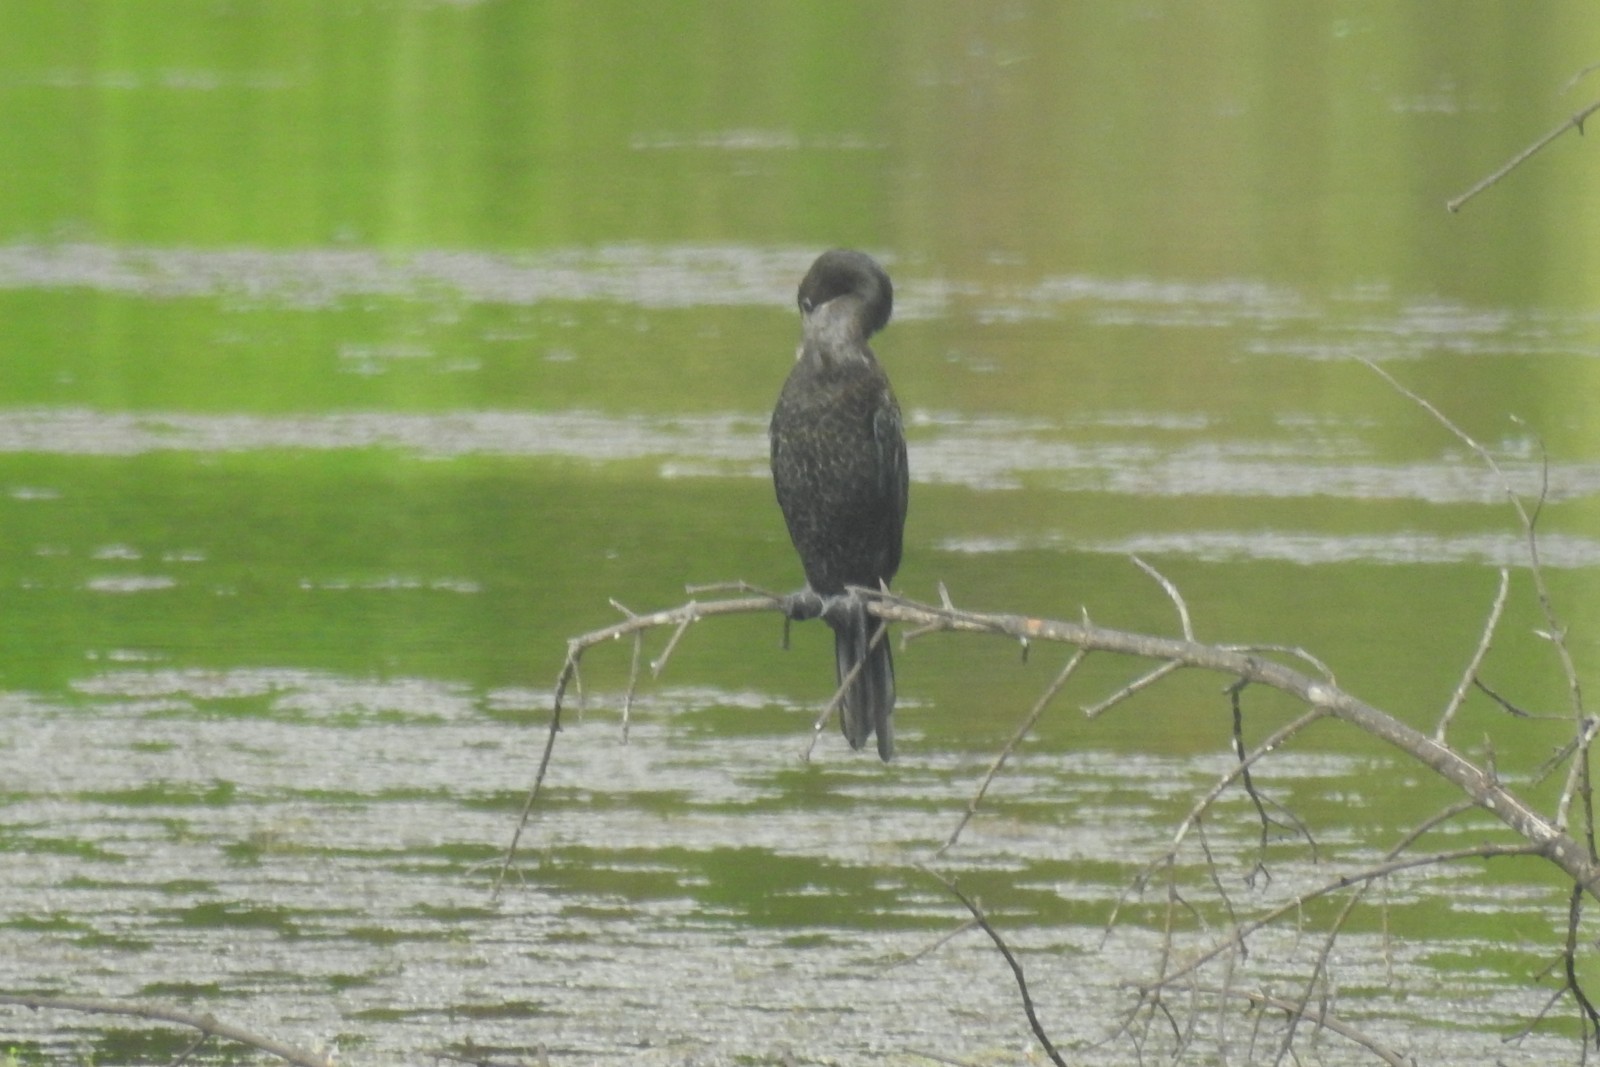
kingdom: Animalia
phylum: Chordata
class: Aves
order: Suliformes
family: Phalacrocoracidae
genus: Microcarbo
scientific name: Microcarbo niger
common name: Little cormorant
